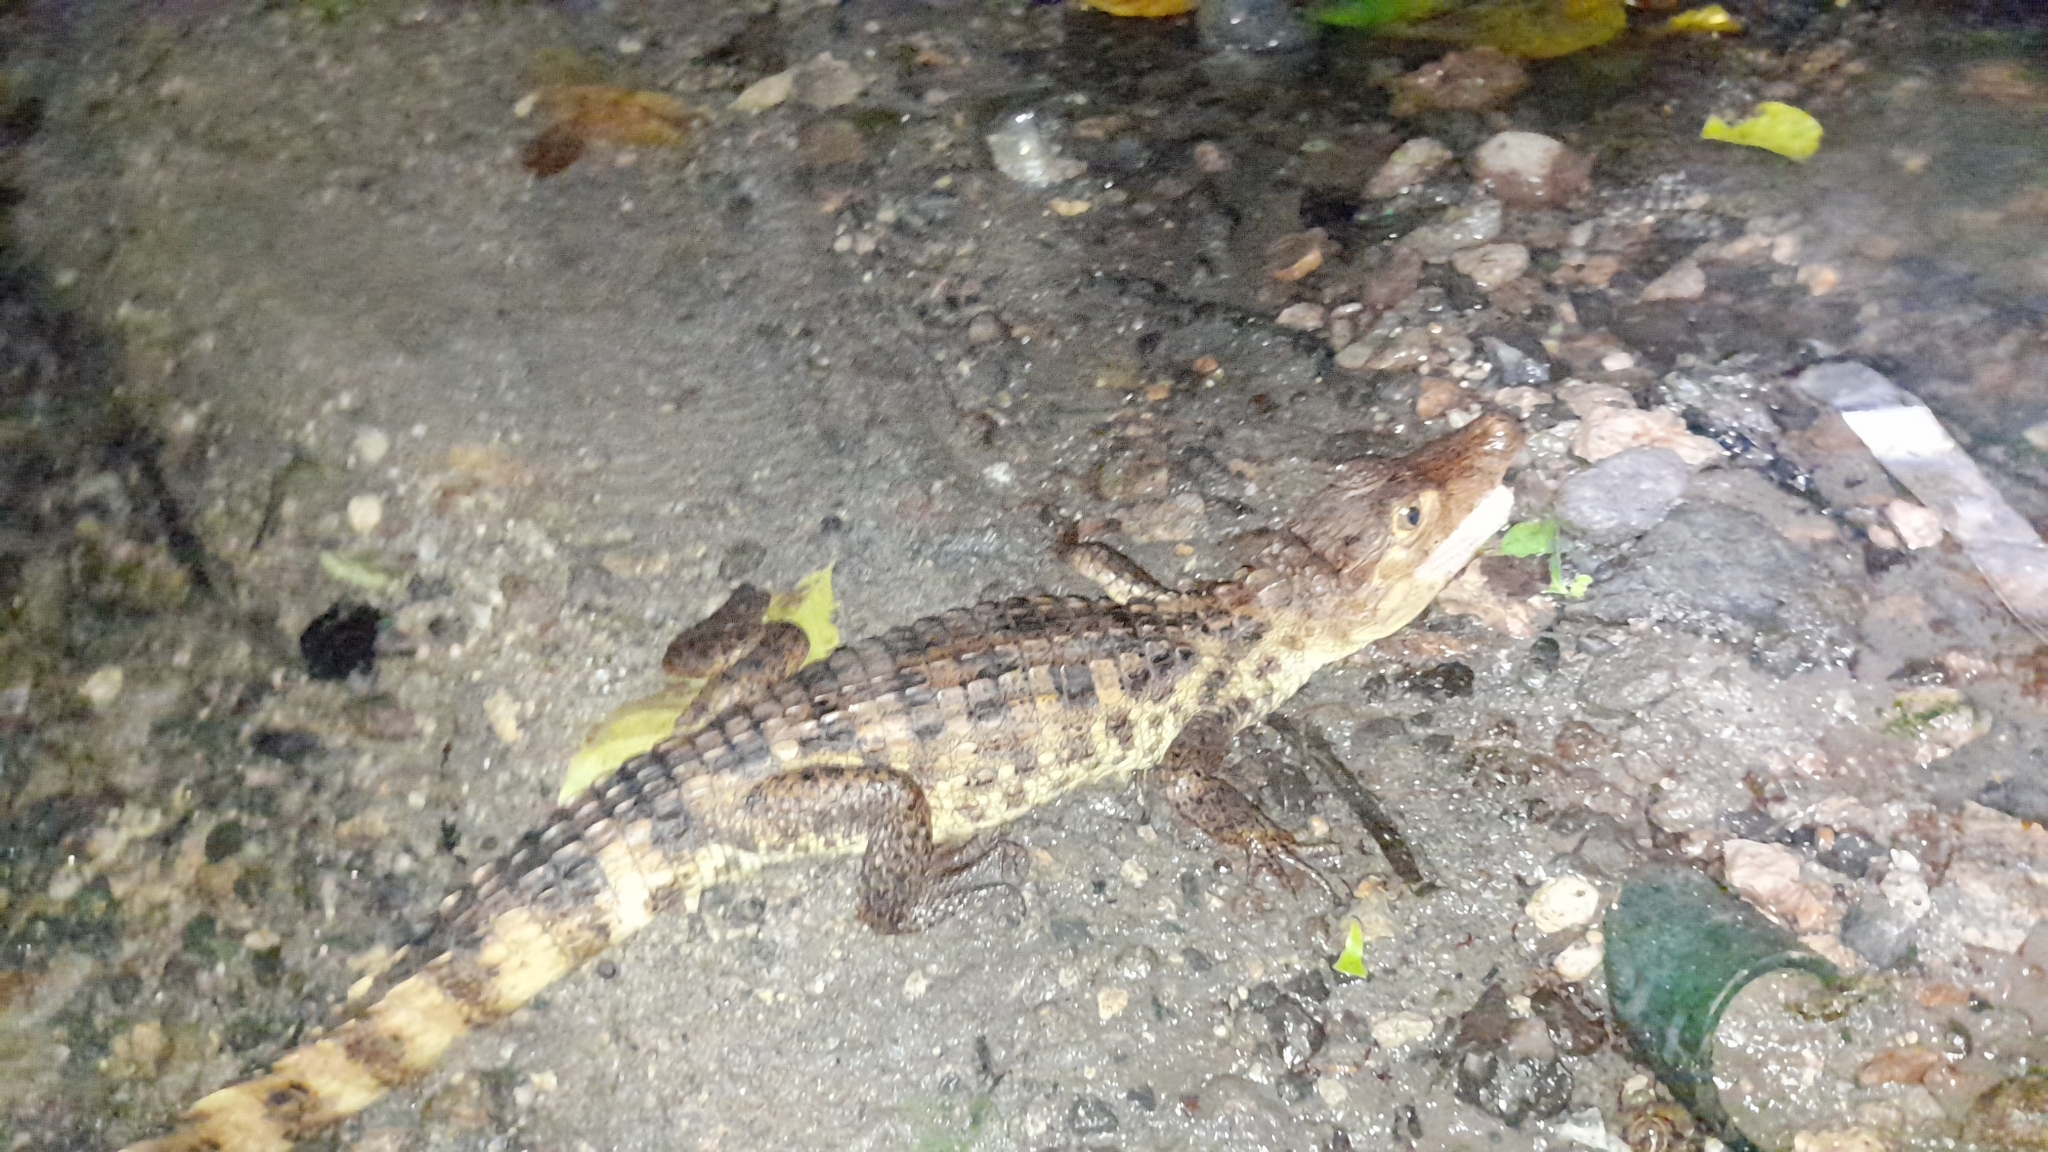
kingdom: Animalia
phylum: Chordata
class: Crocodylia
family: Alligatoridae
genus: Caiman
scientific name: Caiman crocodilus
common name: Common caiman
